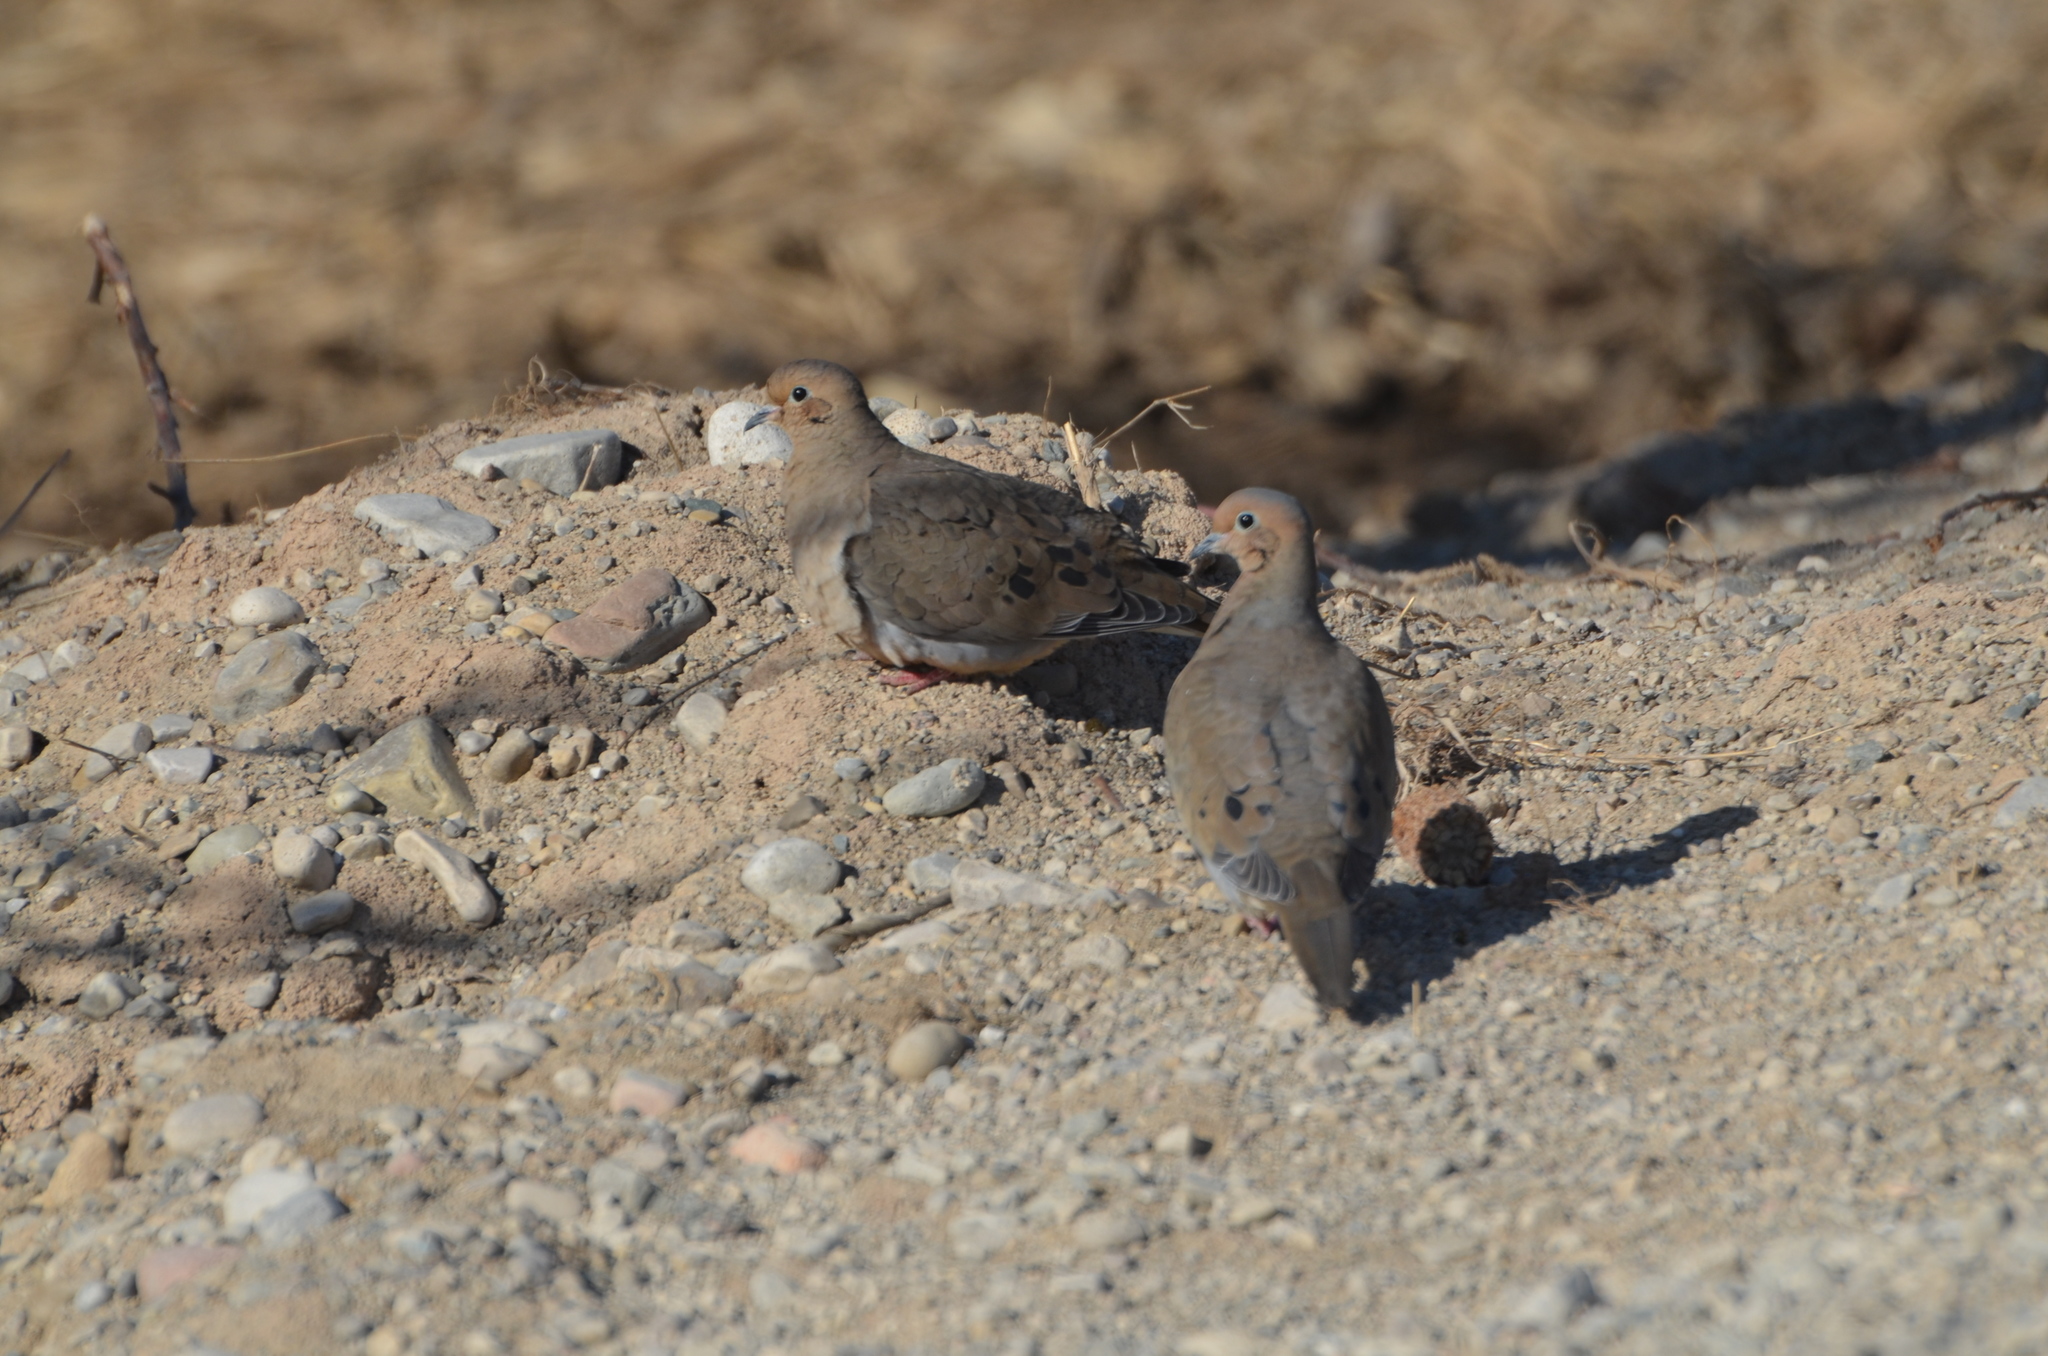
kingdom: Animalia
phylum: Chordata
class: Aves
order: Columbiformes
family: Columbidae
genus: Zenaida
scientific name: Zenaida macroura
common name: Mourning dove
